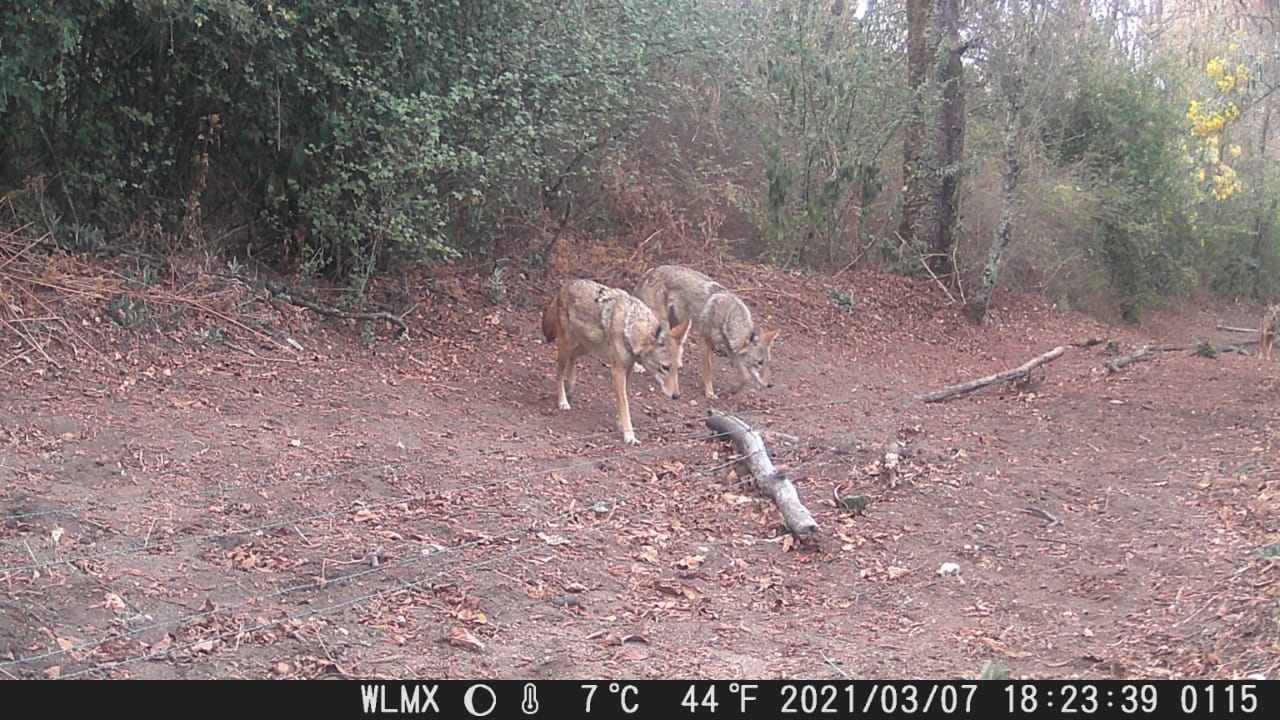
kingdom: Animalia
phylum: Chordata
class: Mammalia
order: Carnivora
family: Canidae
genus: Canis
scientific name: Canis latrans
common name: Coyote
